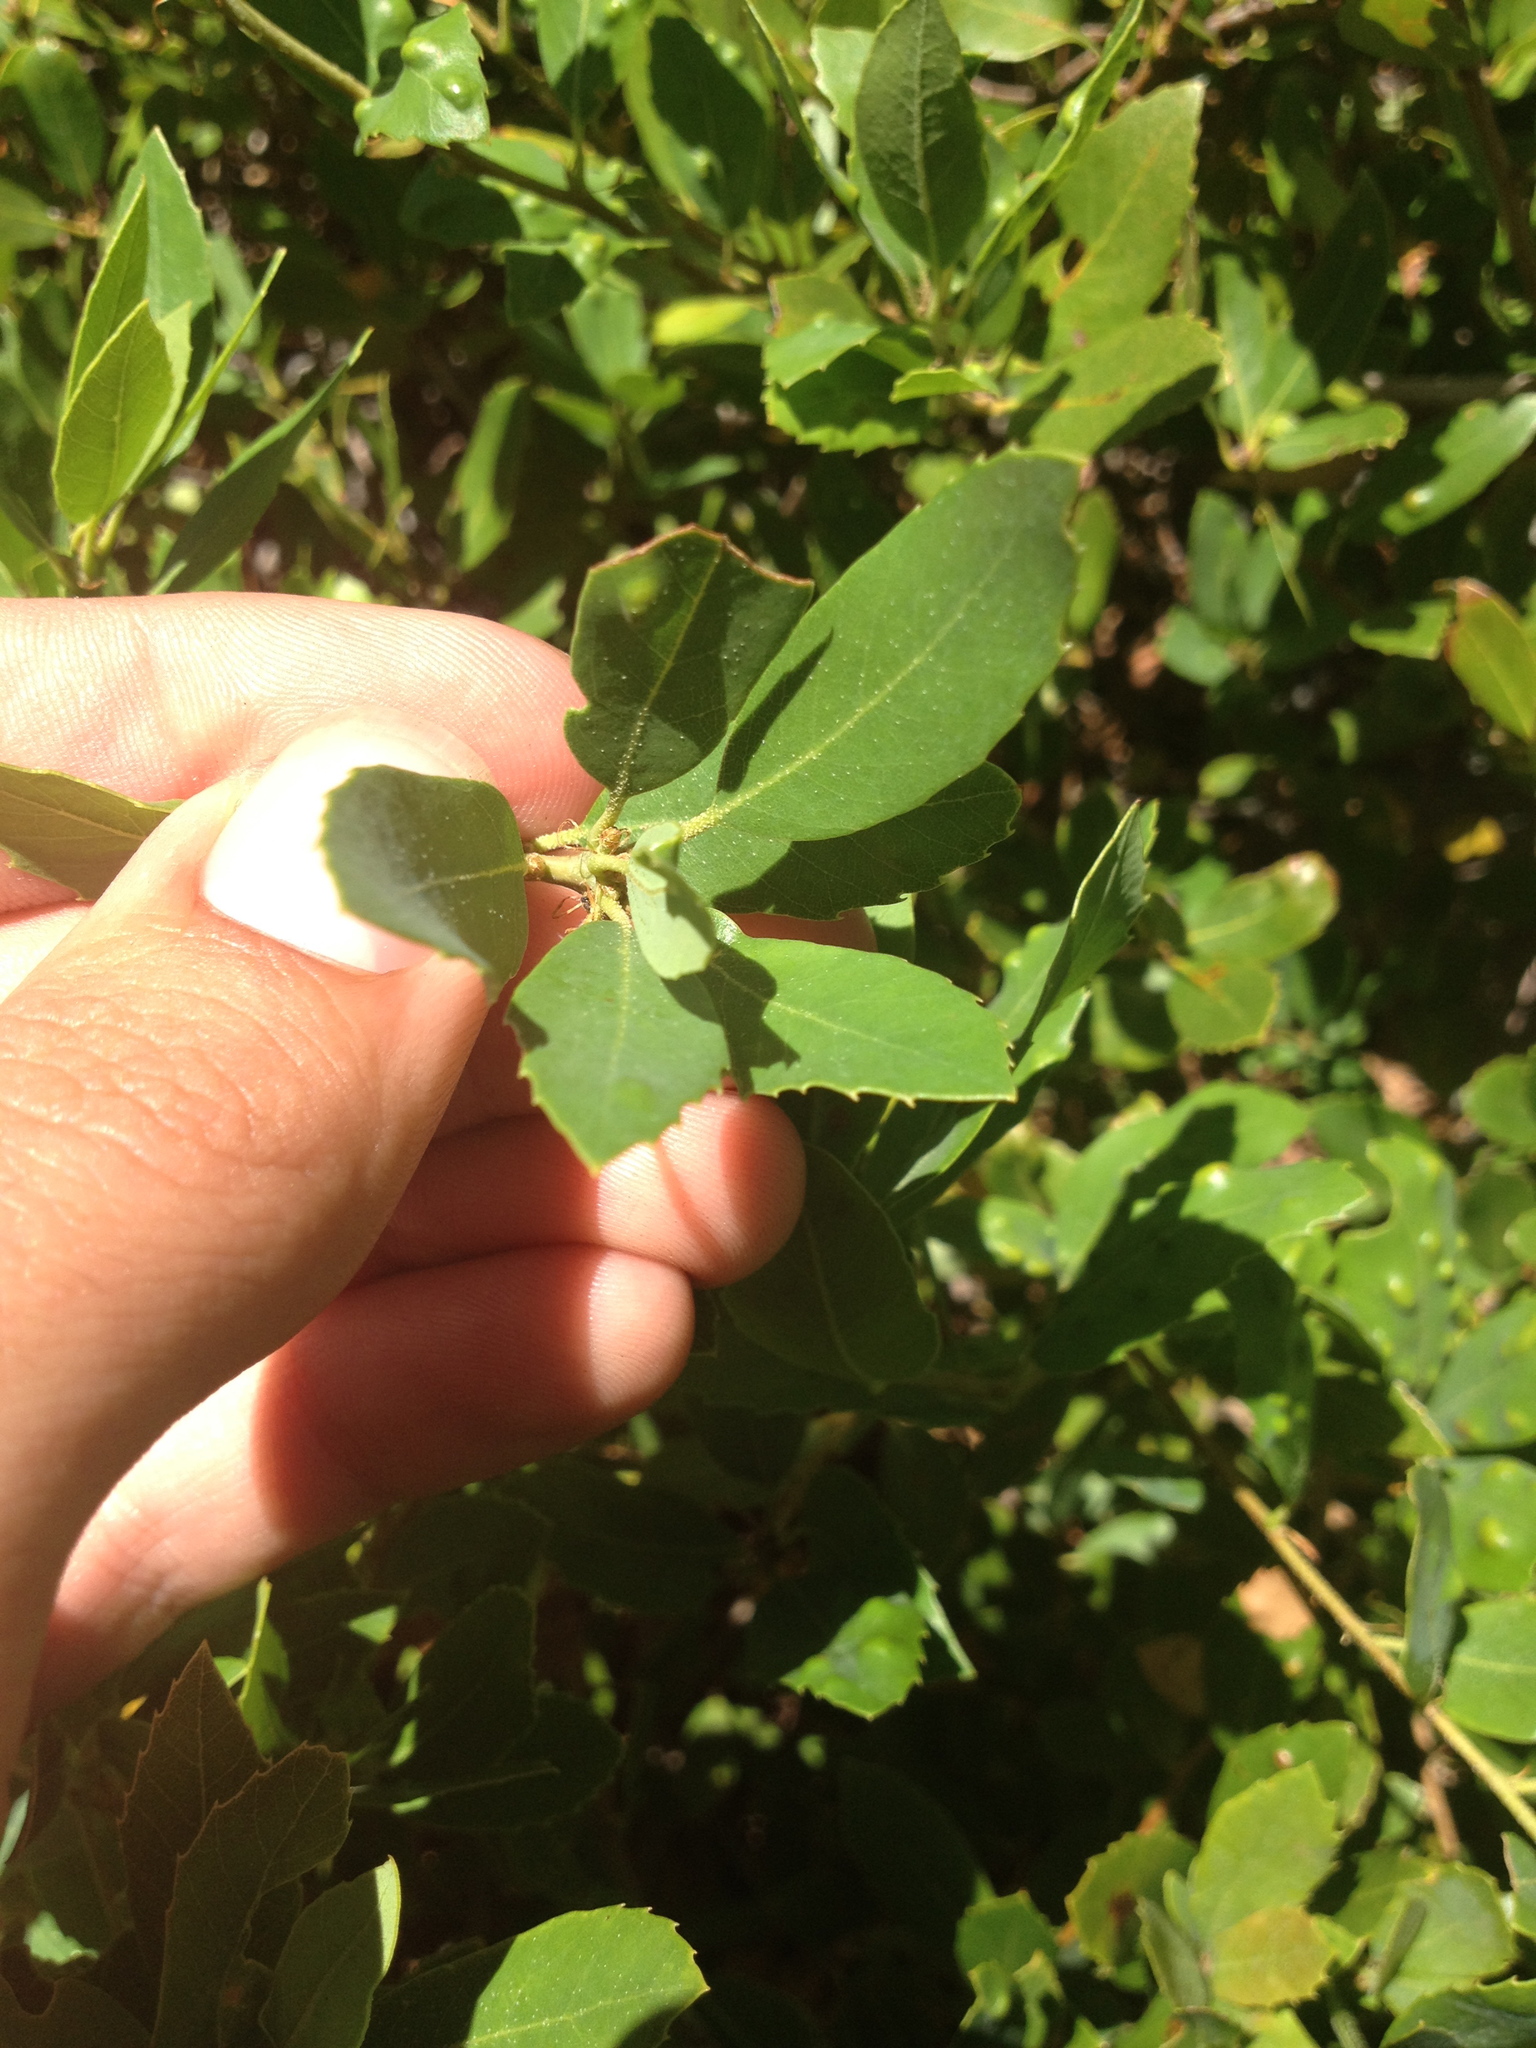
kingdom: Plantae
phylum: Tracheophyta
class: Magnoliopsida
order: Fagales
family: Fagaceae
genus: Quercus
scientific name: Quercus vacciniifolia
